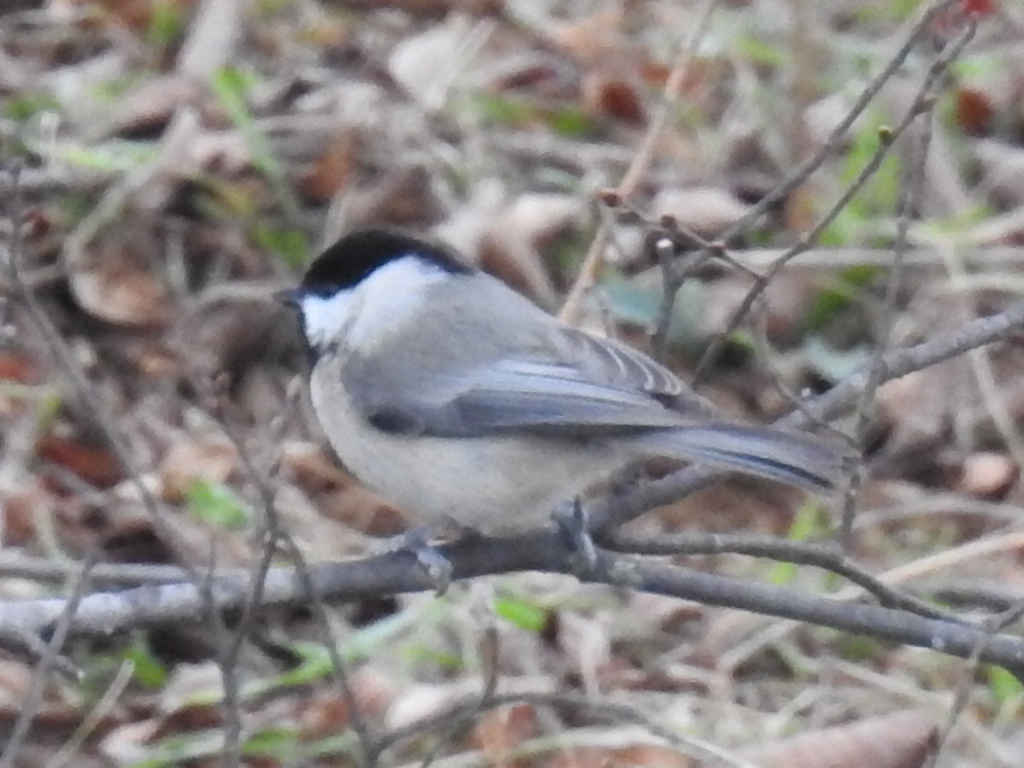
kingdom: Animalia
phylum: Chordata
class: Aves
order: Passeriformes
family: Paridae
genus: Poecile
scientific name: Poecile carolinensis
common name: Carolina chickadee
